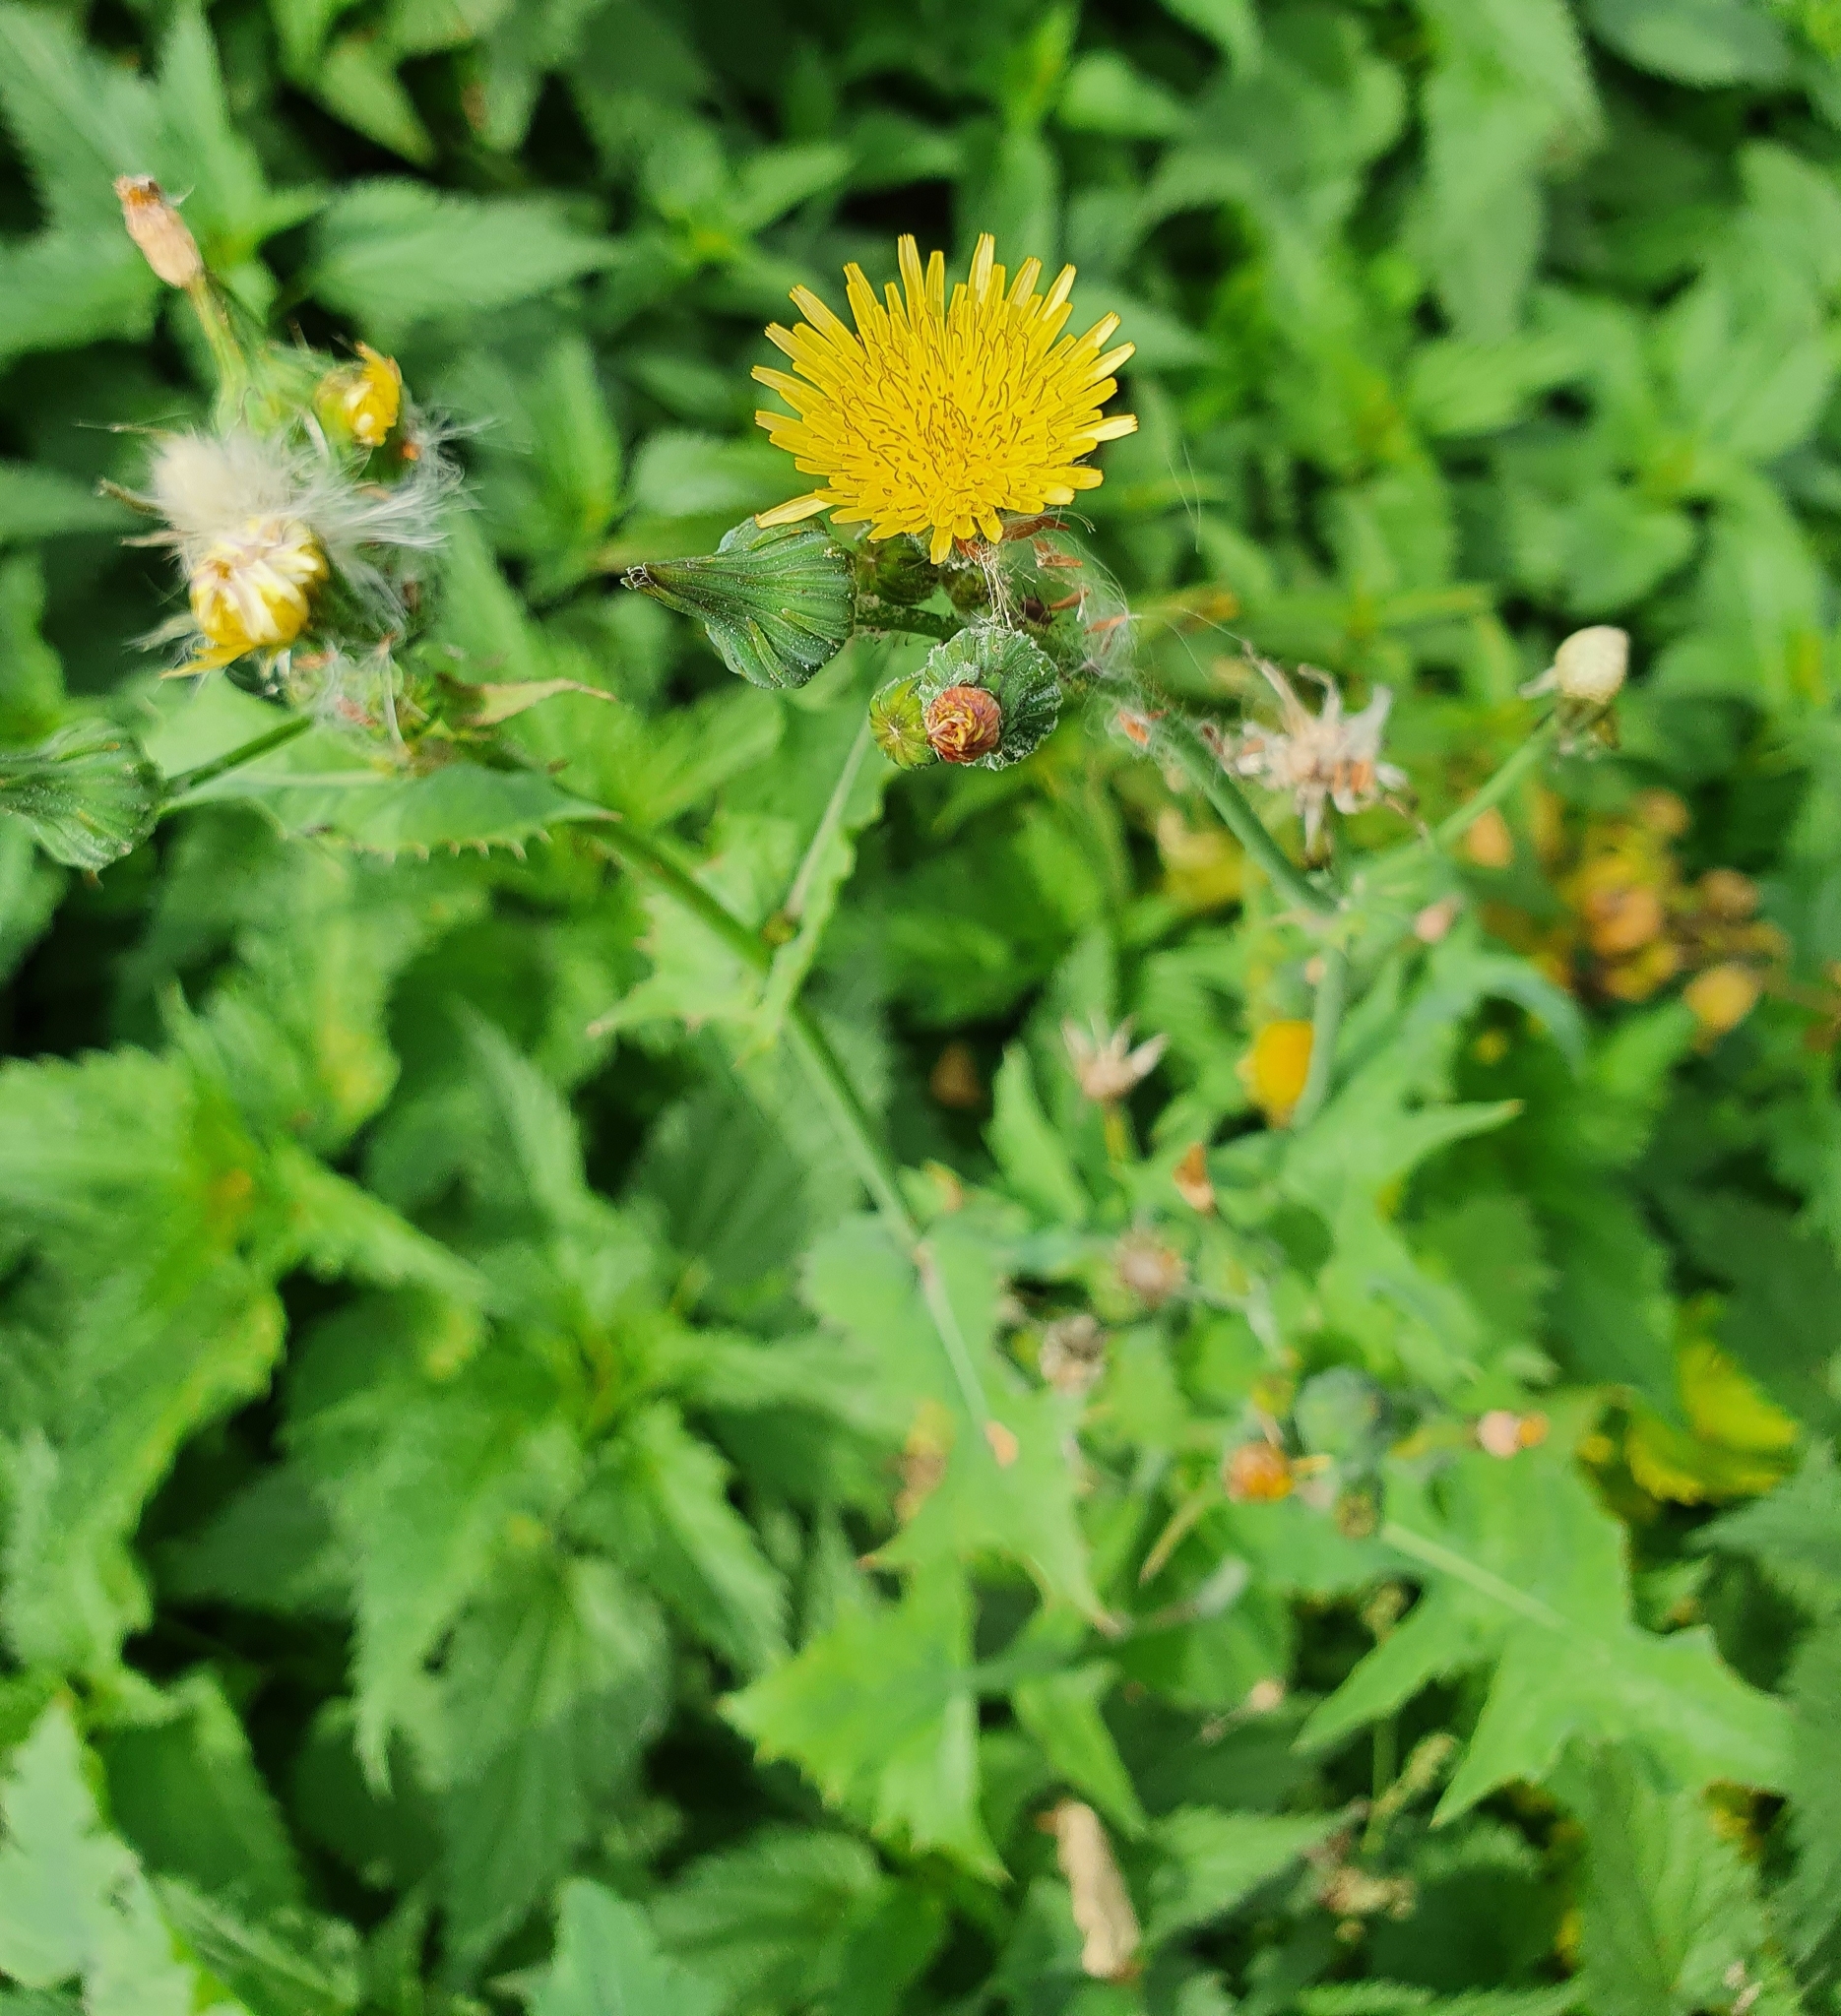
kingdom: Plantae
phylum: Tracheophyta
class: Magnoliopsida
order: Asterales
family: Asteraceae
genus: Sonchus
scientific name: Sonchus oleraceus
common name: Common sowthistle
